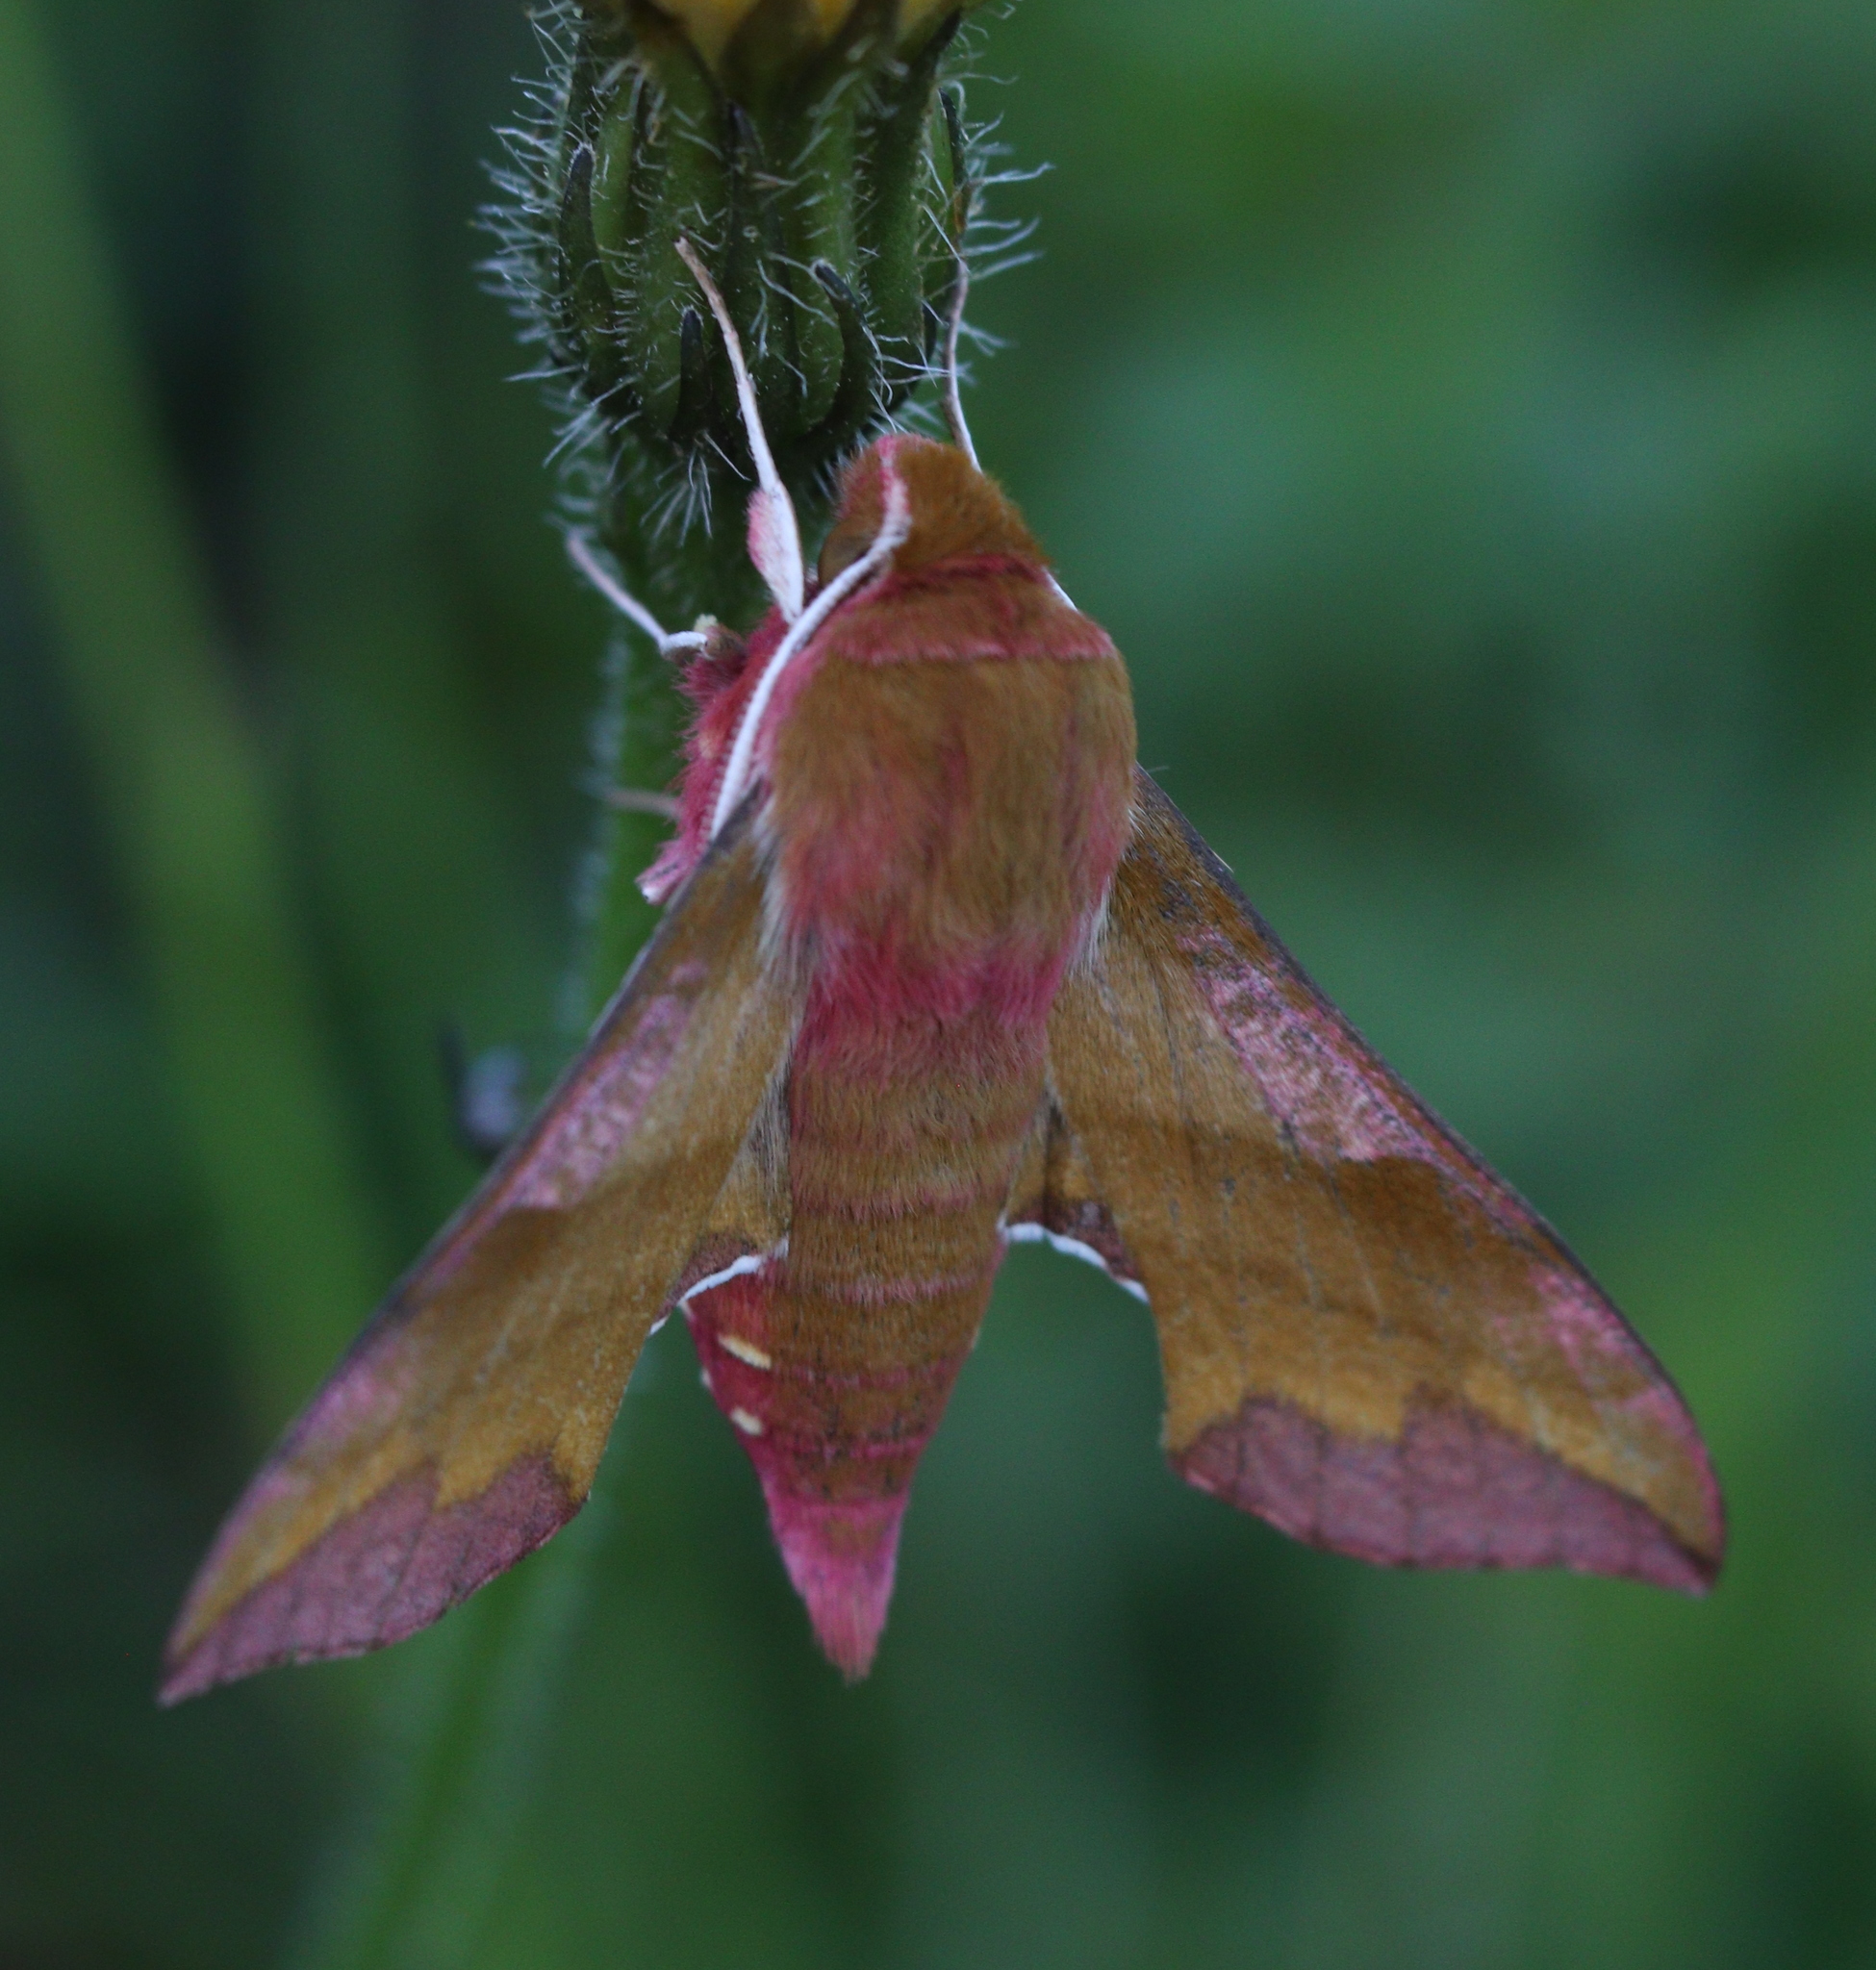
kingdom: Animalia
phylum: Arthropoda
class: Insecta
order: Lepidoptera
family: Sphingidae
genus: Deilephila
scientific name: Deilephila porcellus
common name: Small elephant hawk-moth
